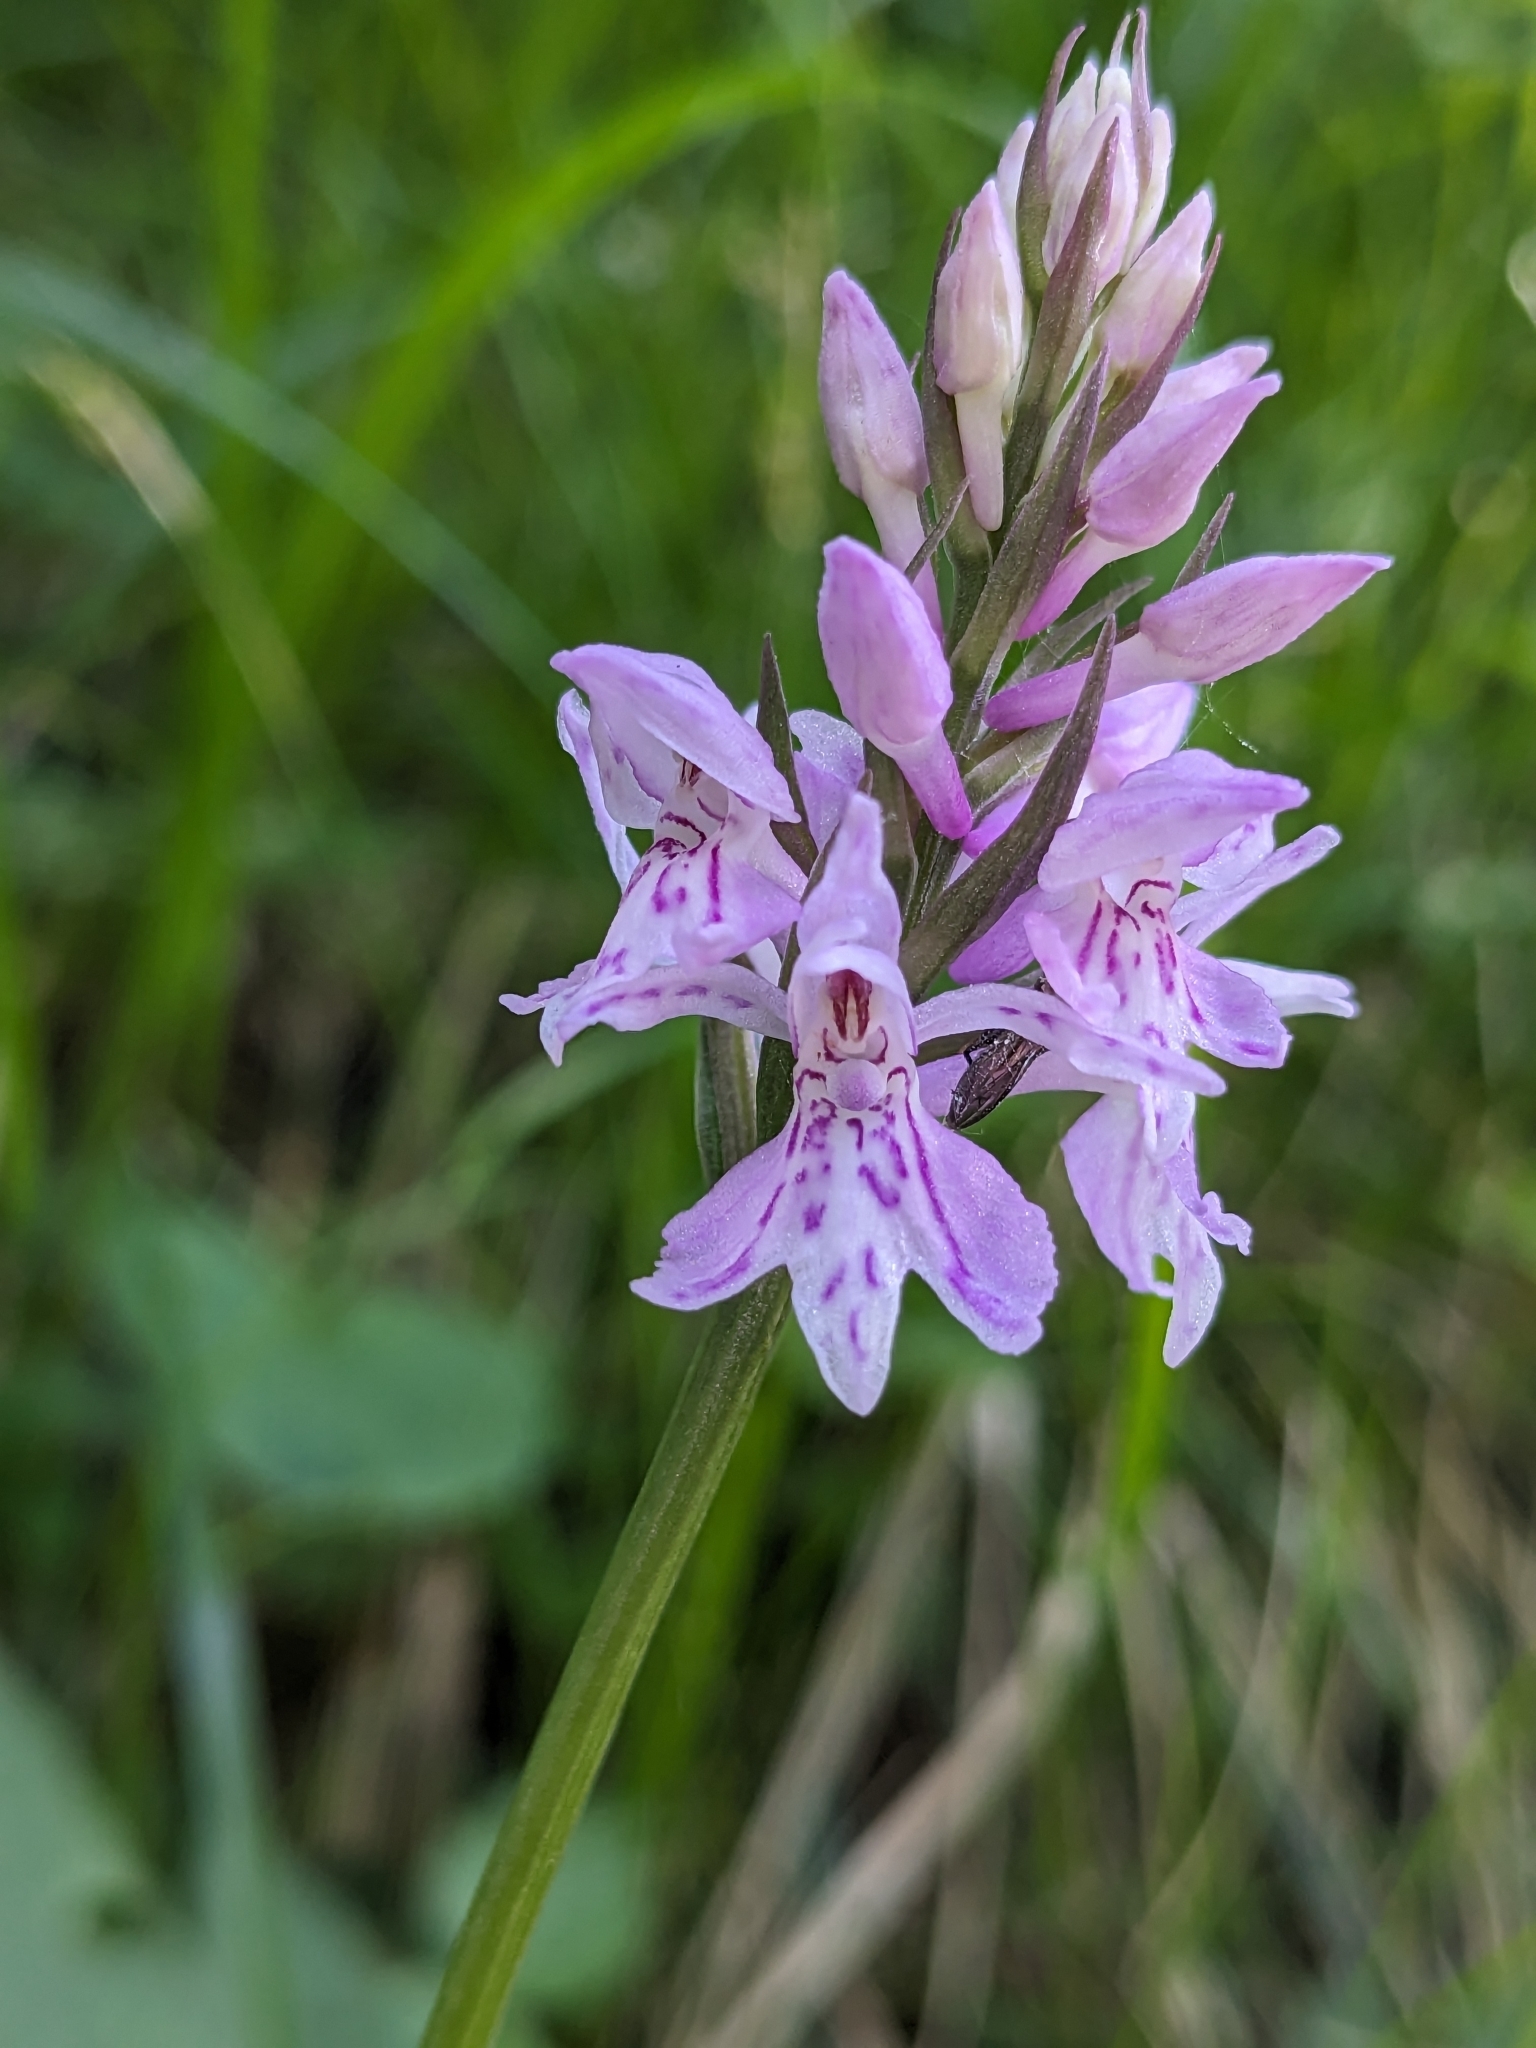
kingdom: Plantae
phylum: Tracheophyta
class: Liliopsida
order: Asparagales
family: Orchidaceae
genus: Dactylorhiza
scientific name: Dactylorhiza maculata
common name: Heath spotted-orchid
